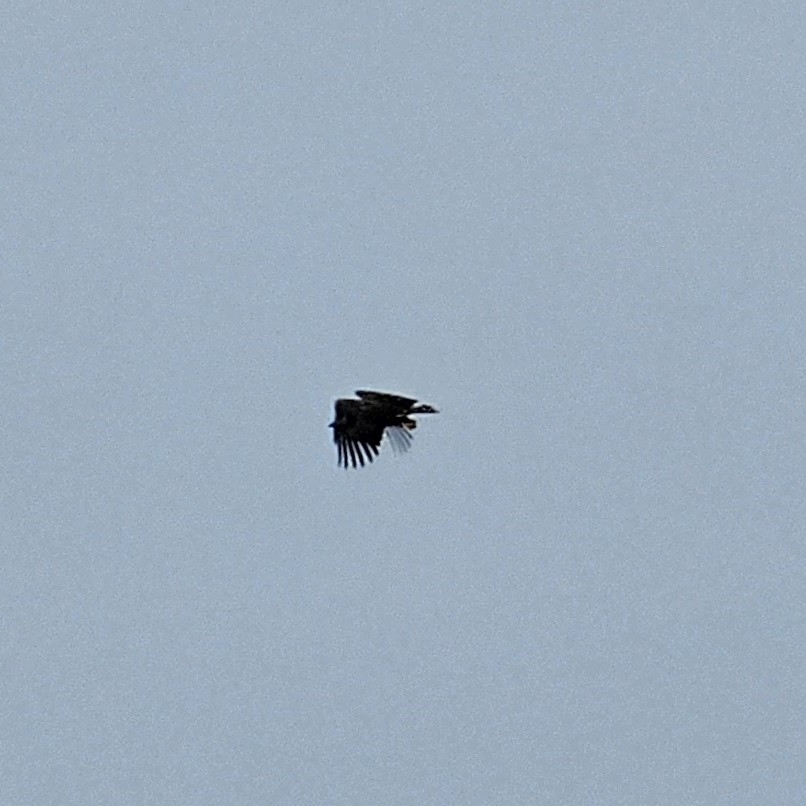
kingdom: Animalia
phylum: Chordata
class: Aves
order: Accipitriformes
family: Accipitridae
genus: Haliaeetus
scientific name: Haliaeetus albicilla
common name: White-tailed eagle
